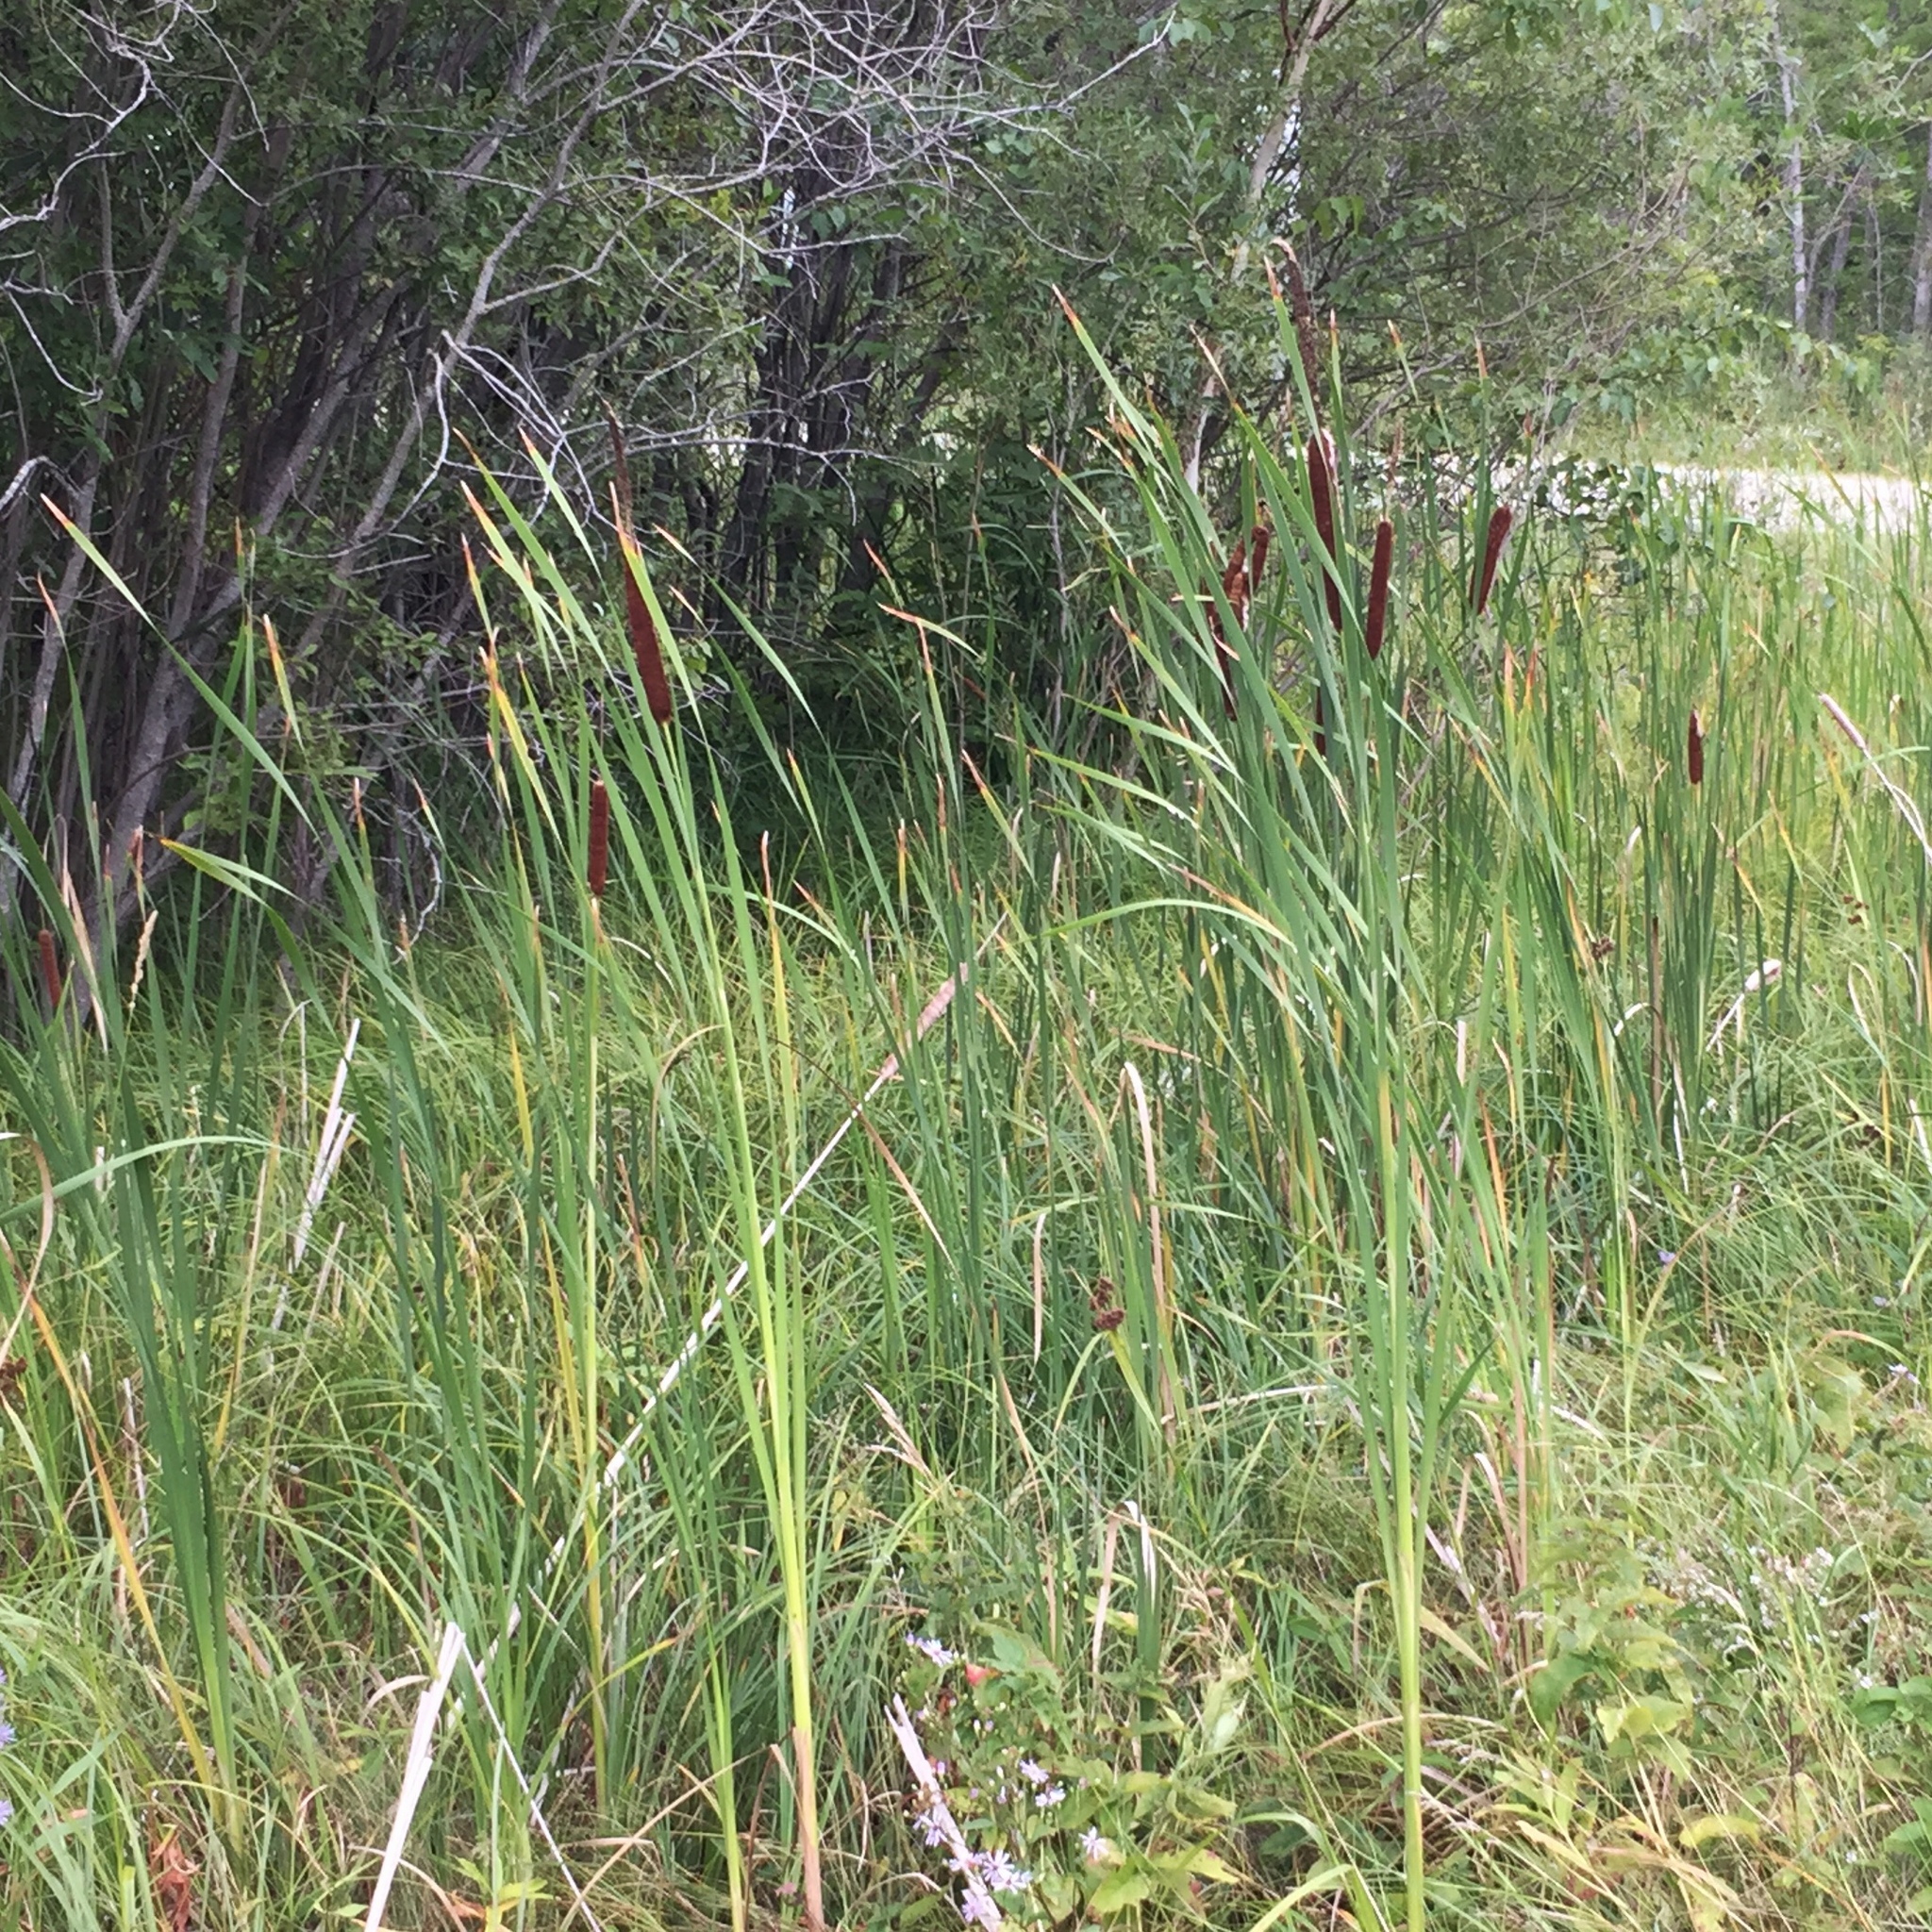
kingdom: Plantae
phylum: Tracheophyta
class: Liliopsida
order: Poales
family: Typhaceae
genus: Typha
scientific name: Typha latifolia
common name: Broadleaf cattail
